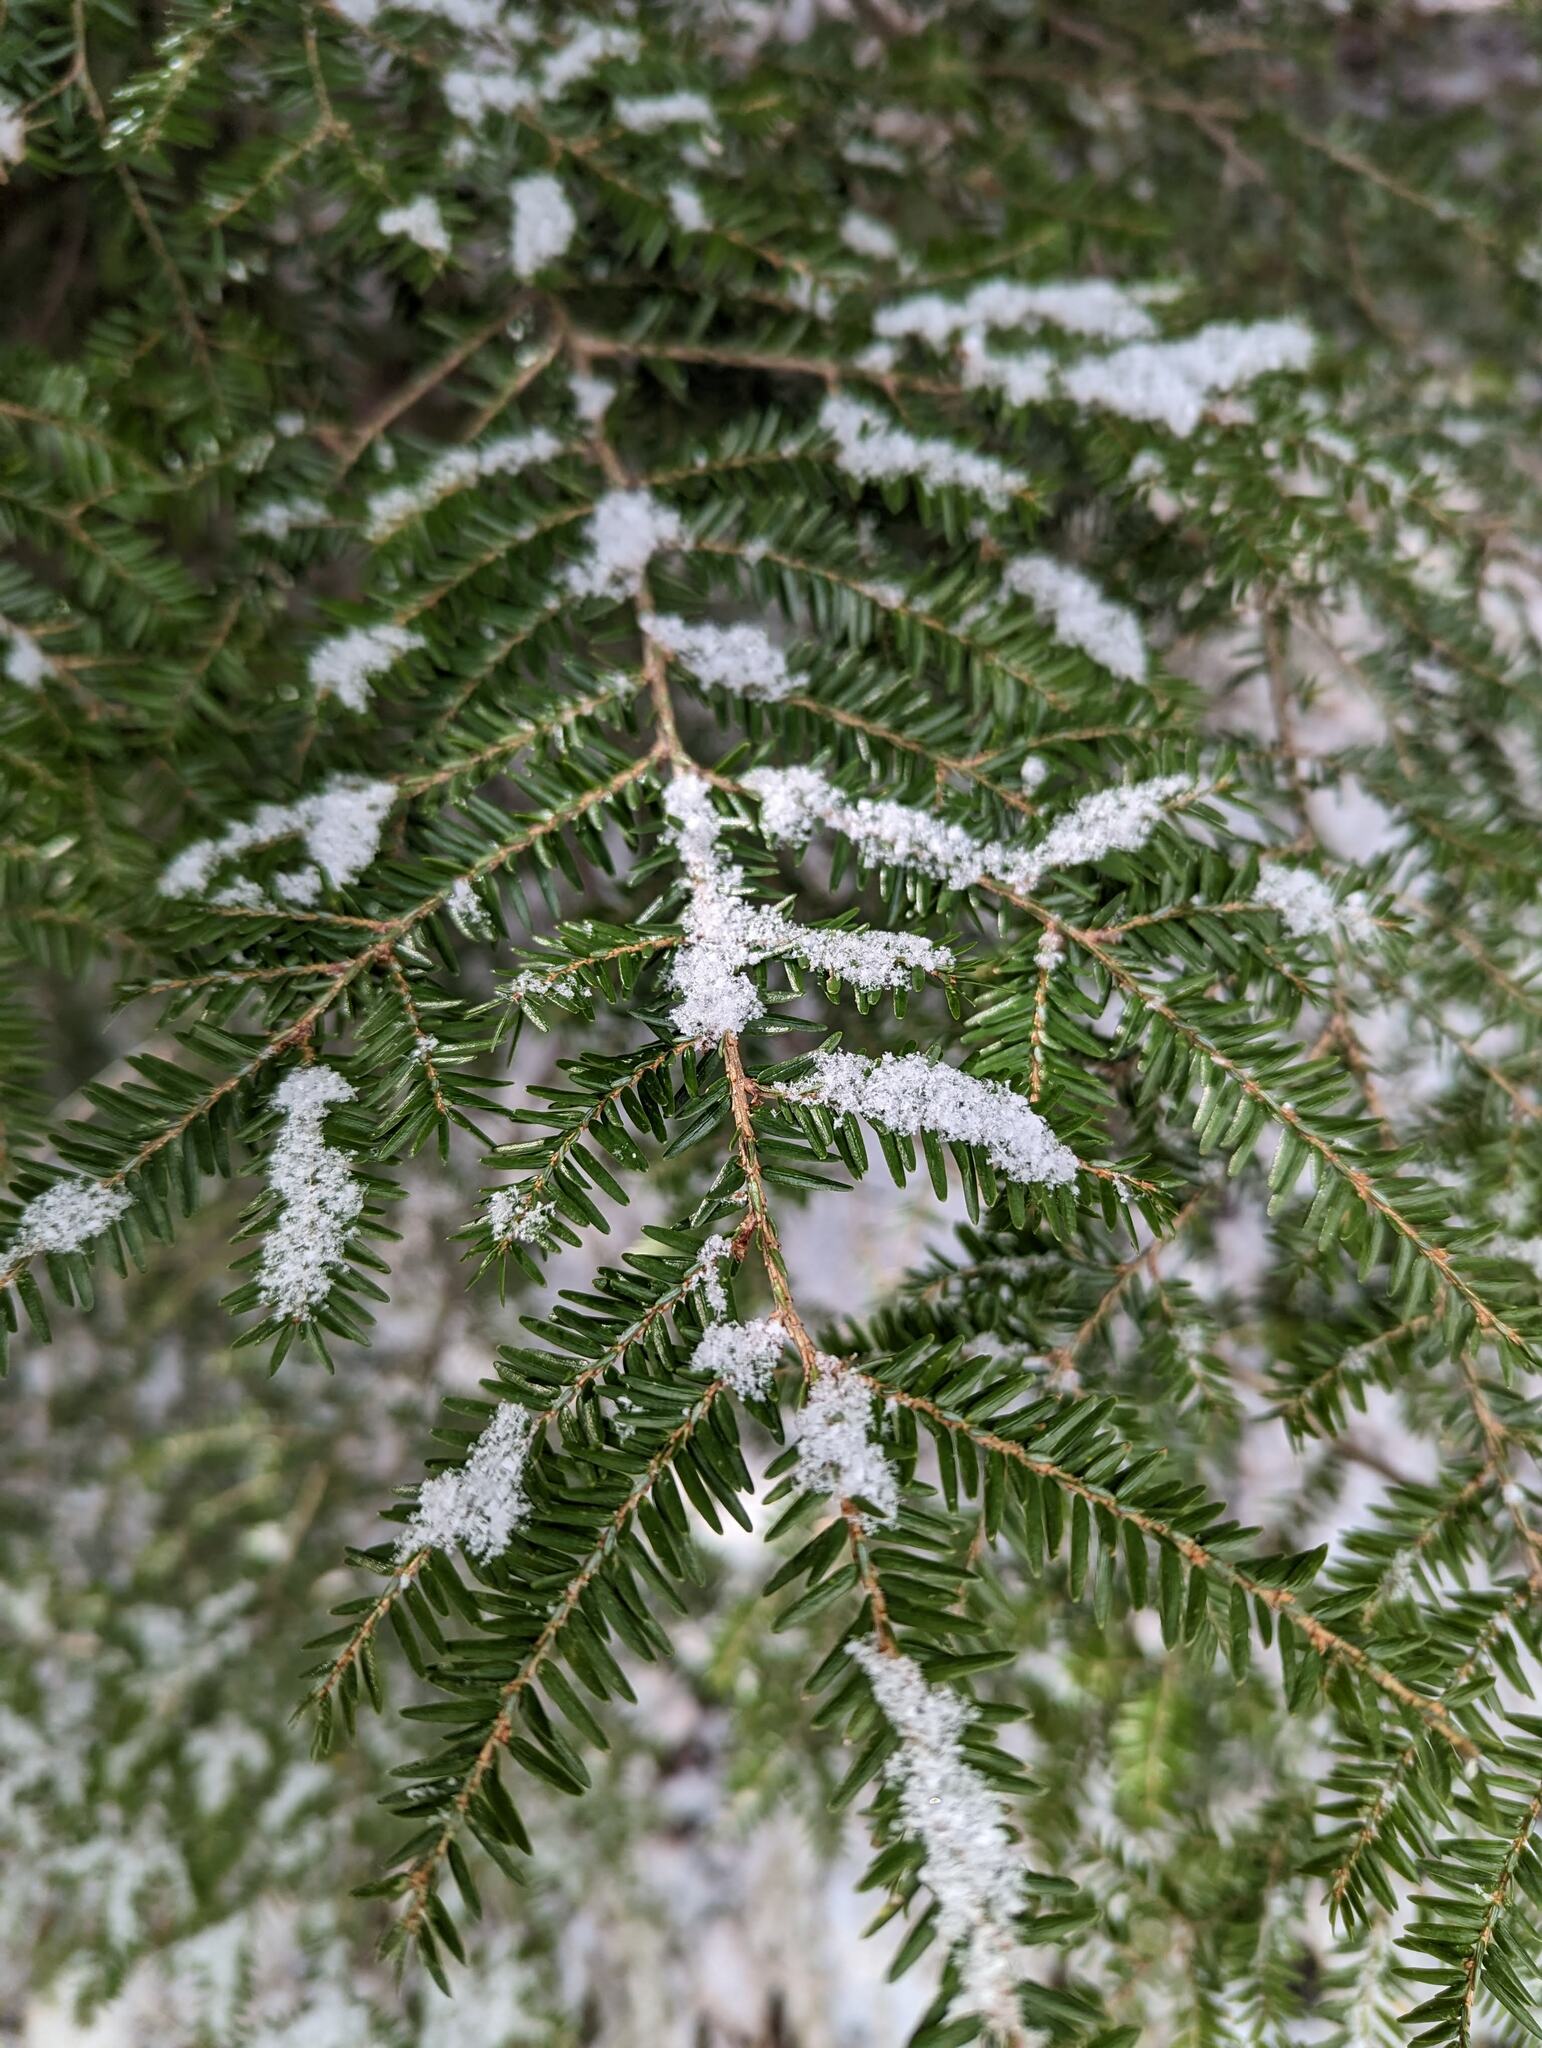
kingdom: Plantae
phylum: Tracheophyta
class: Pinopsida
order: Pinales
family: Pinaceae
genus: Tsuga
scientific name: Tsuga canadensis
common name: Eastern hemlock
